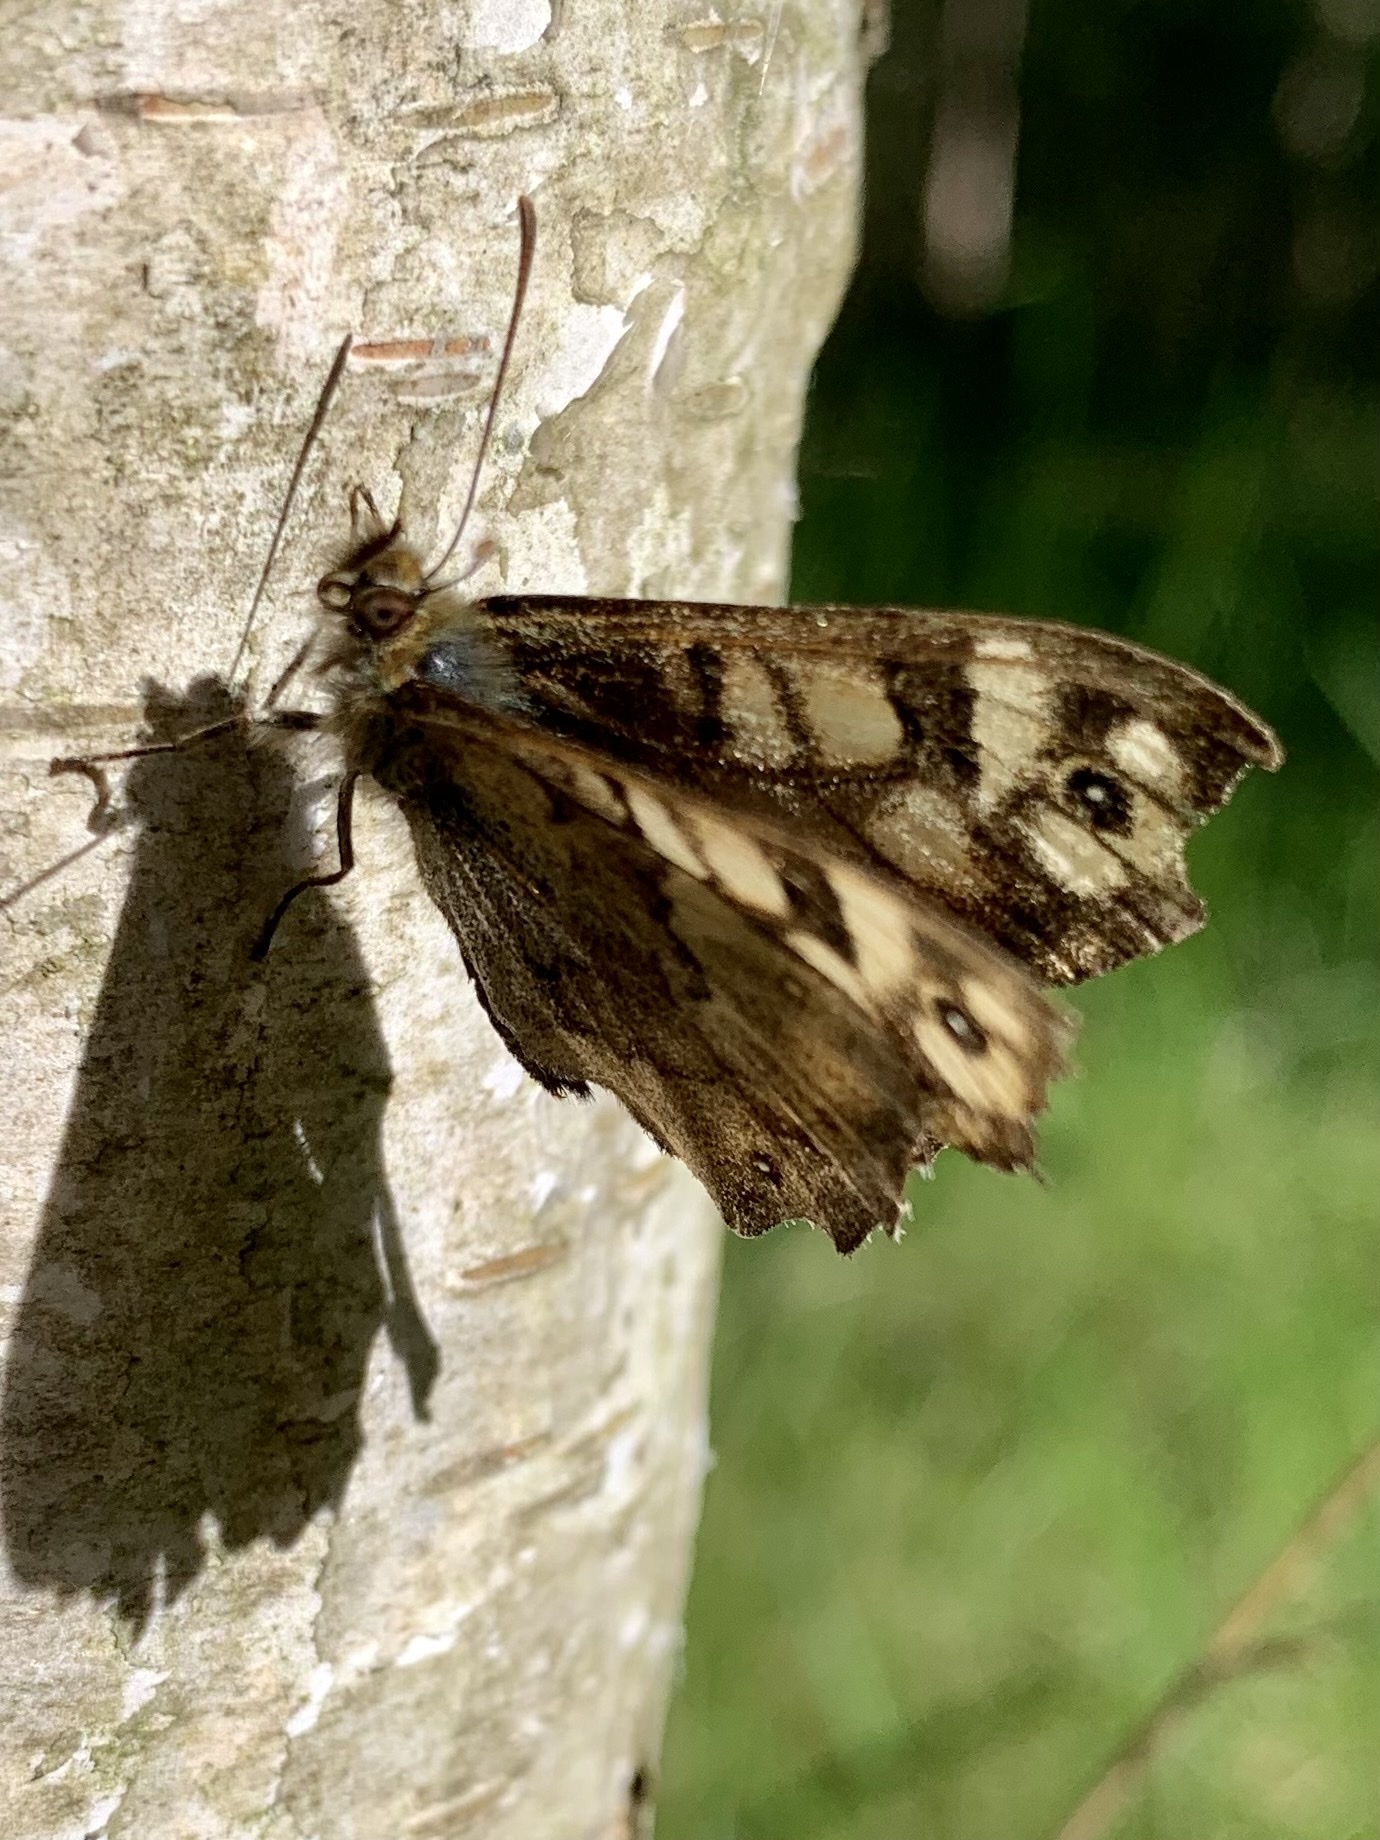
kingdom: Animalia
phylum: Arthropoda
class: Insecta
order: Lepidoptera
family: Nymphalidae
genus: Pararge
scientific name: Pararge aegeria
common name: Speckled wood
